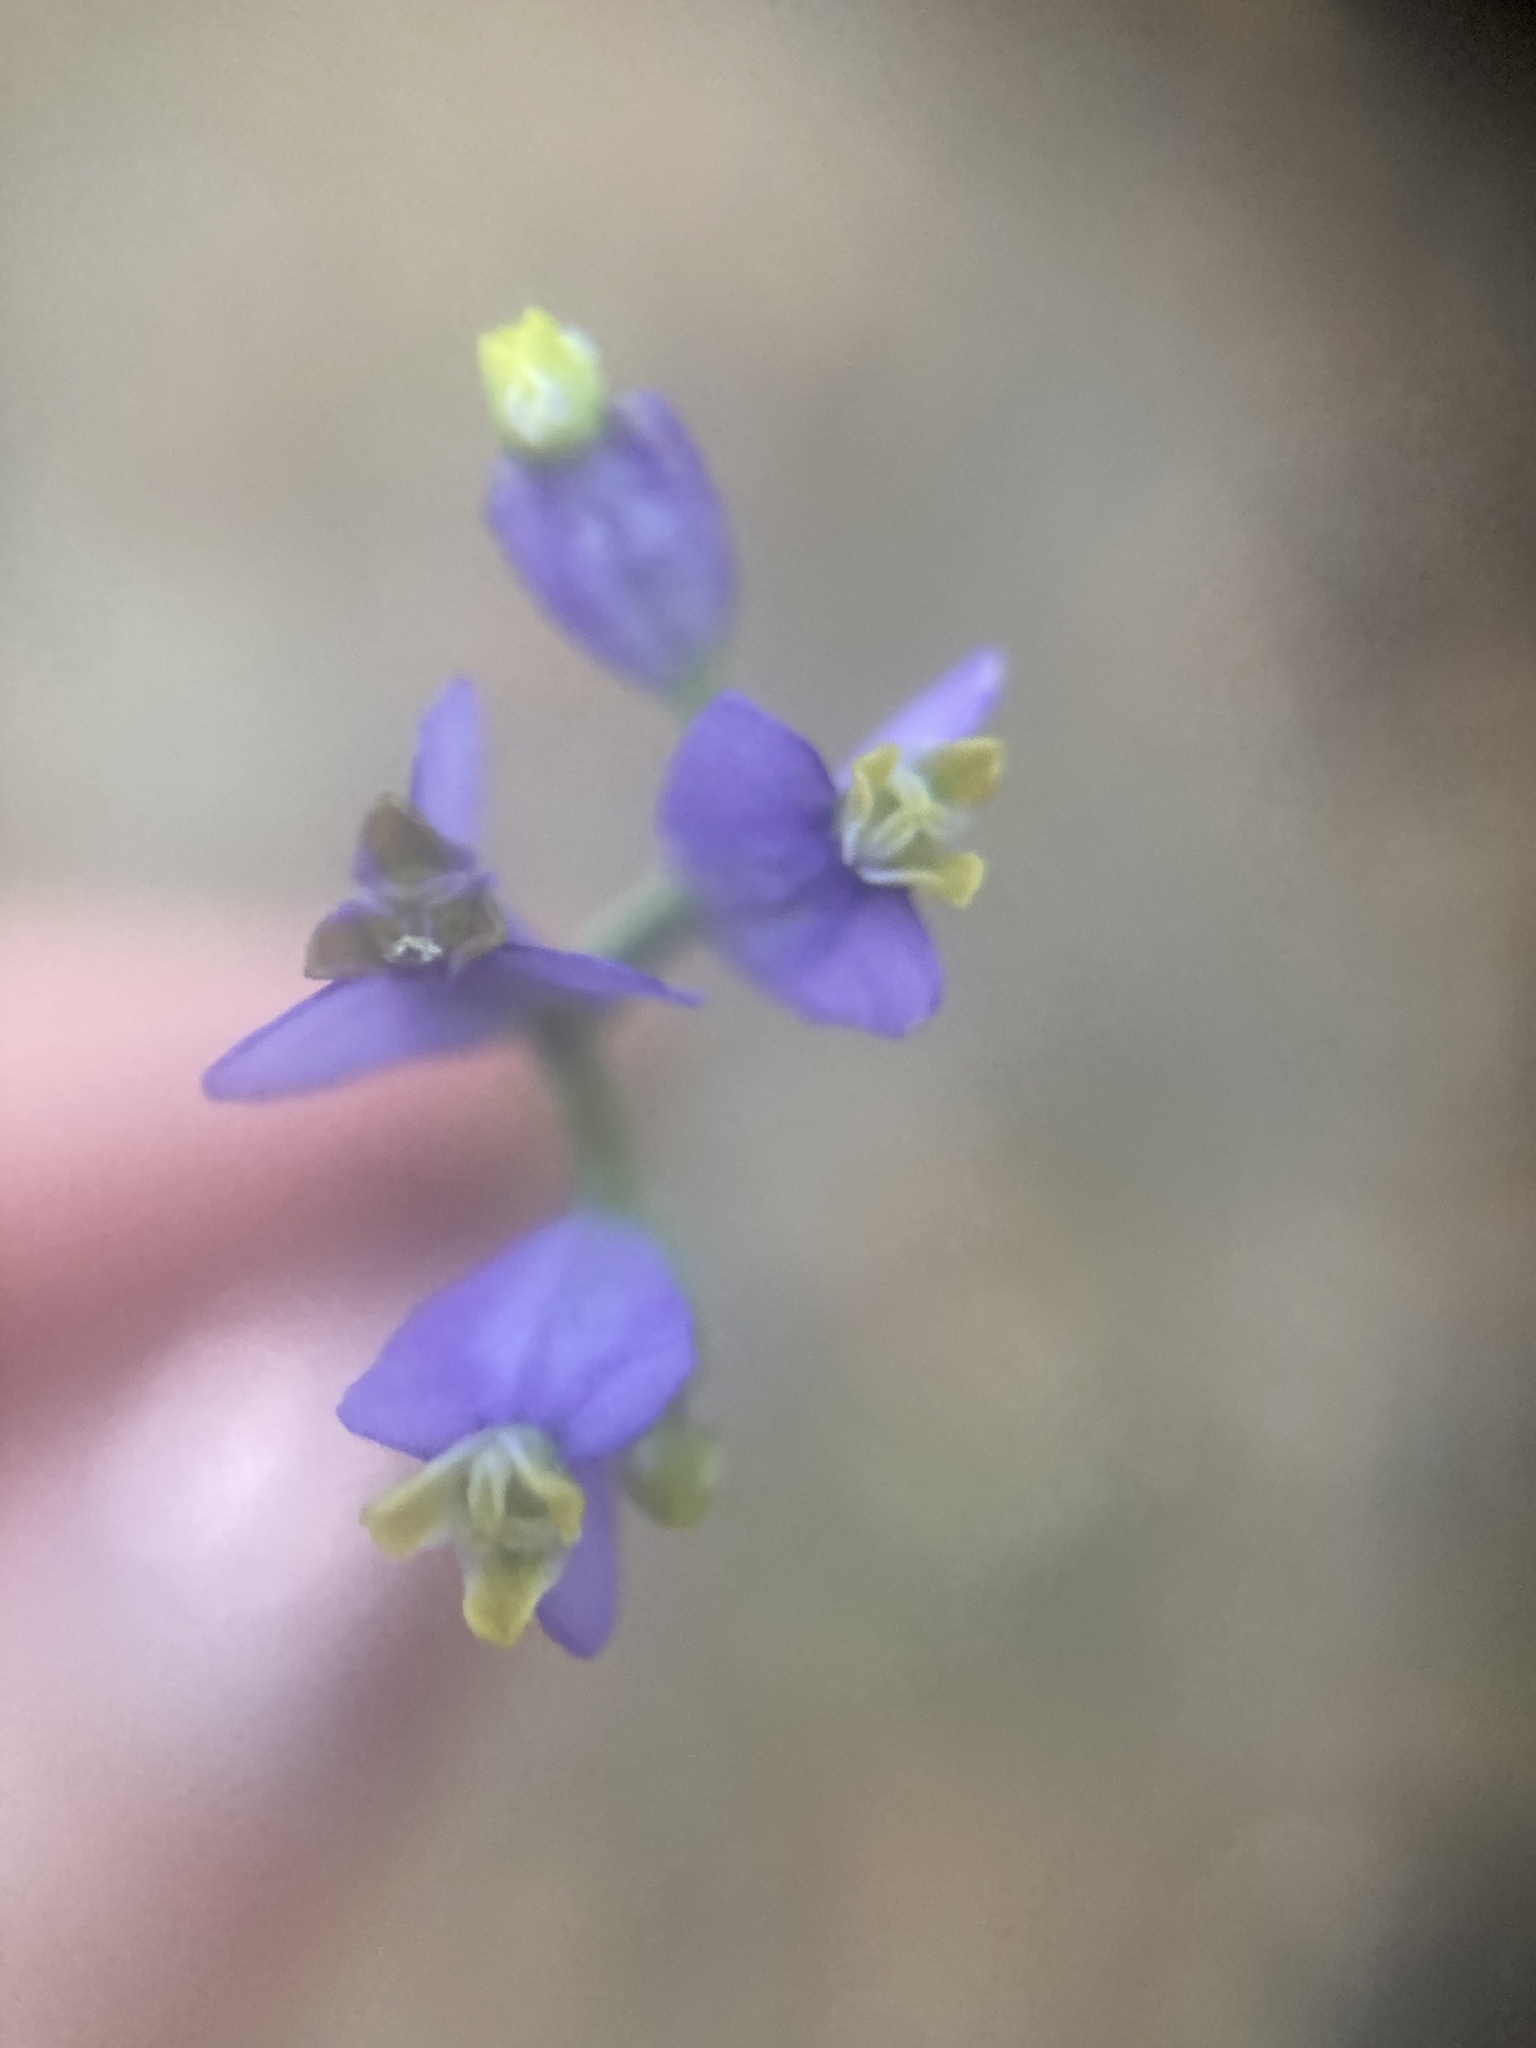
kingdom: Plantae
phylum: Tracheophyta
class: Liliopsida
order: Dioscoreales
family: Burmanniaceae
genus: Burmannia
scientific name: Burmannia biflora
